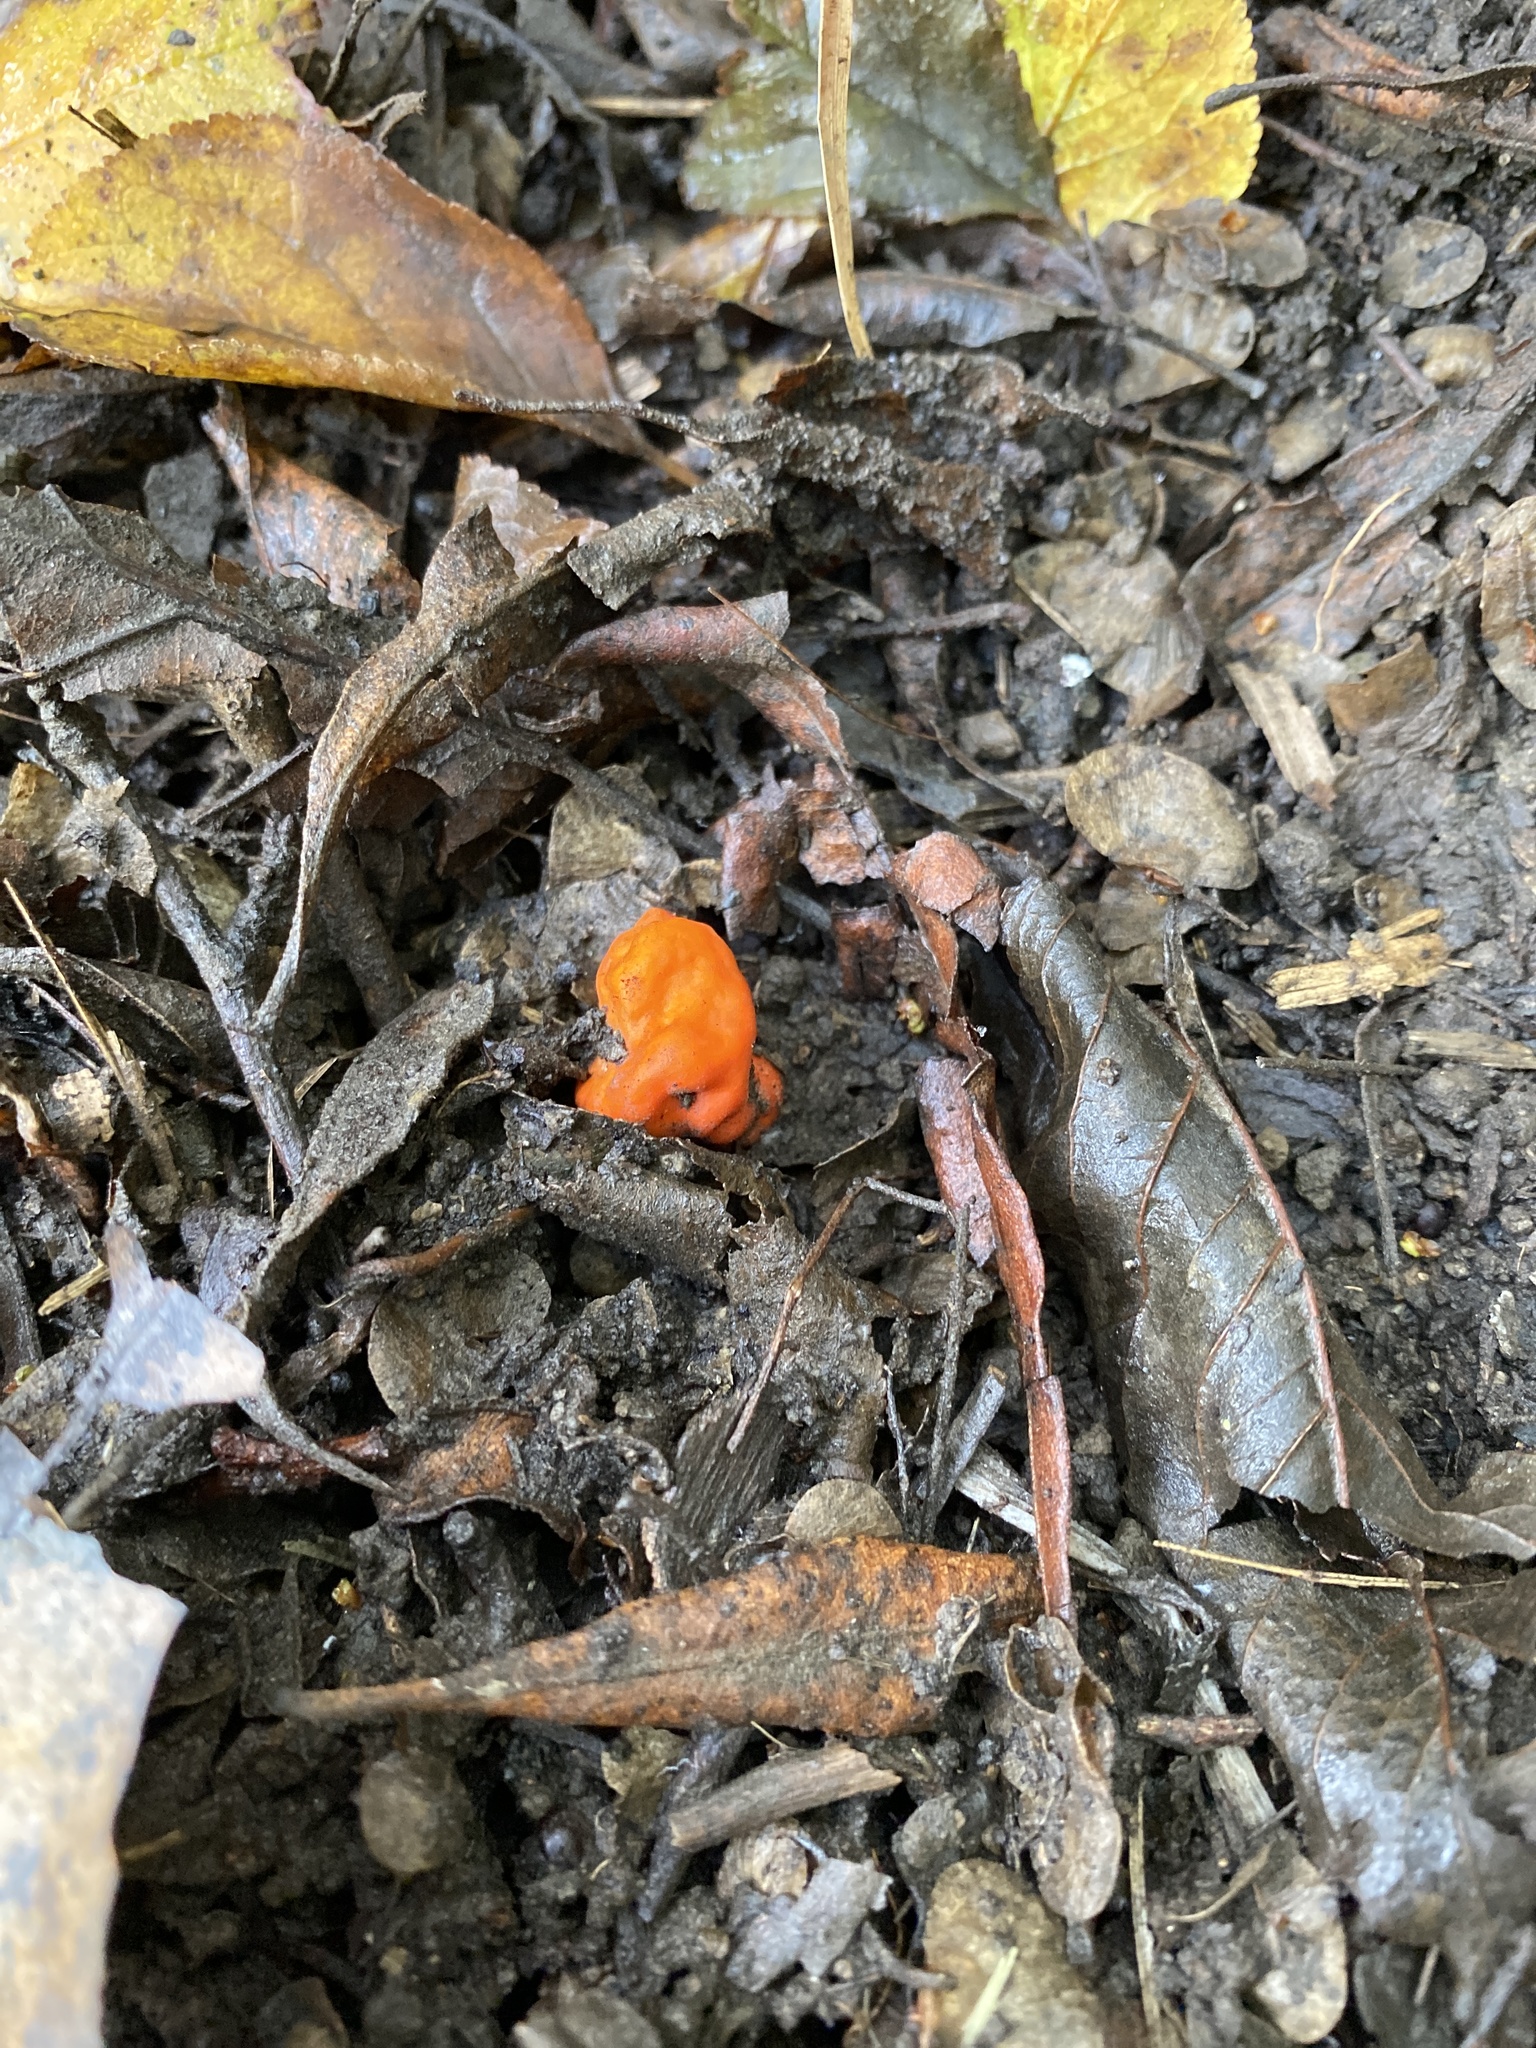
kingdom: Fungi
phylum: Ascomycota
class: Pezizomycetes
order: Pezizales
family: Pyronemataceae
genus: Paurocotylis
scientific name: Paurocotylis pila
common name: Scarlet berry truffle
